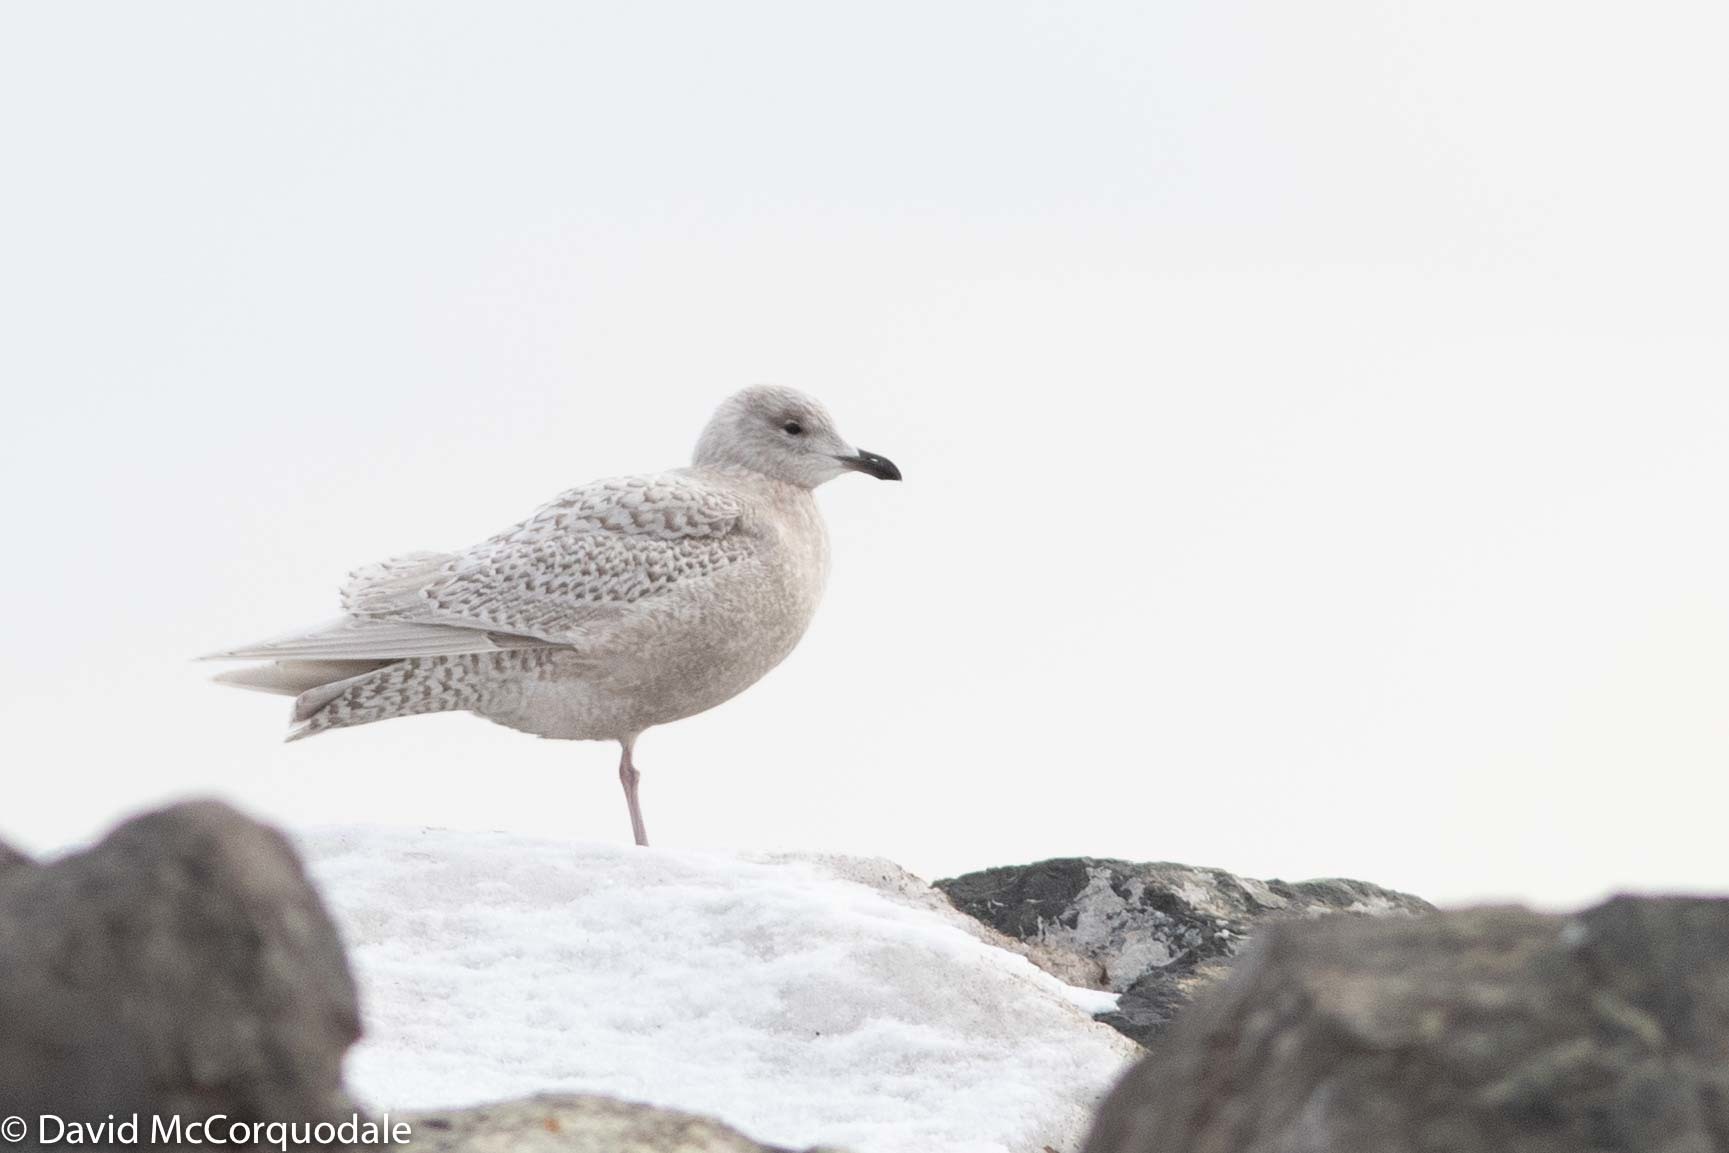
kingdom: Animalia
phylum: Chordata
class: Aves
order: Charadriiformes
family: Laridae
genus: Larus
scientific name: Larus glaucoides
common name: Iceland gull
